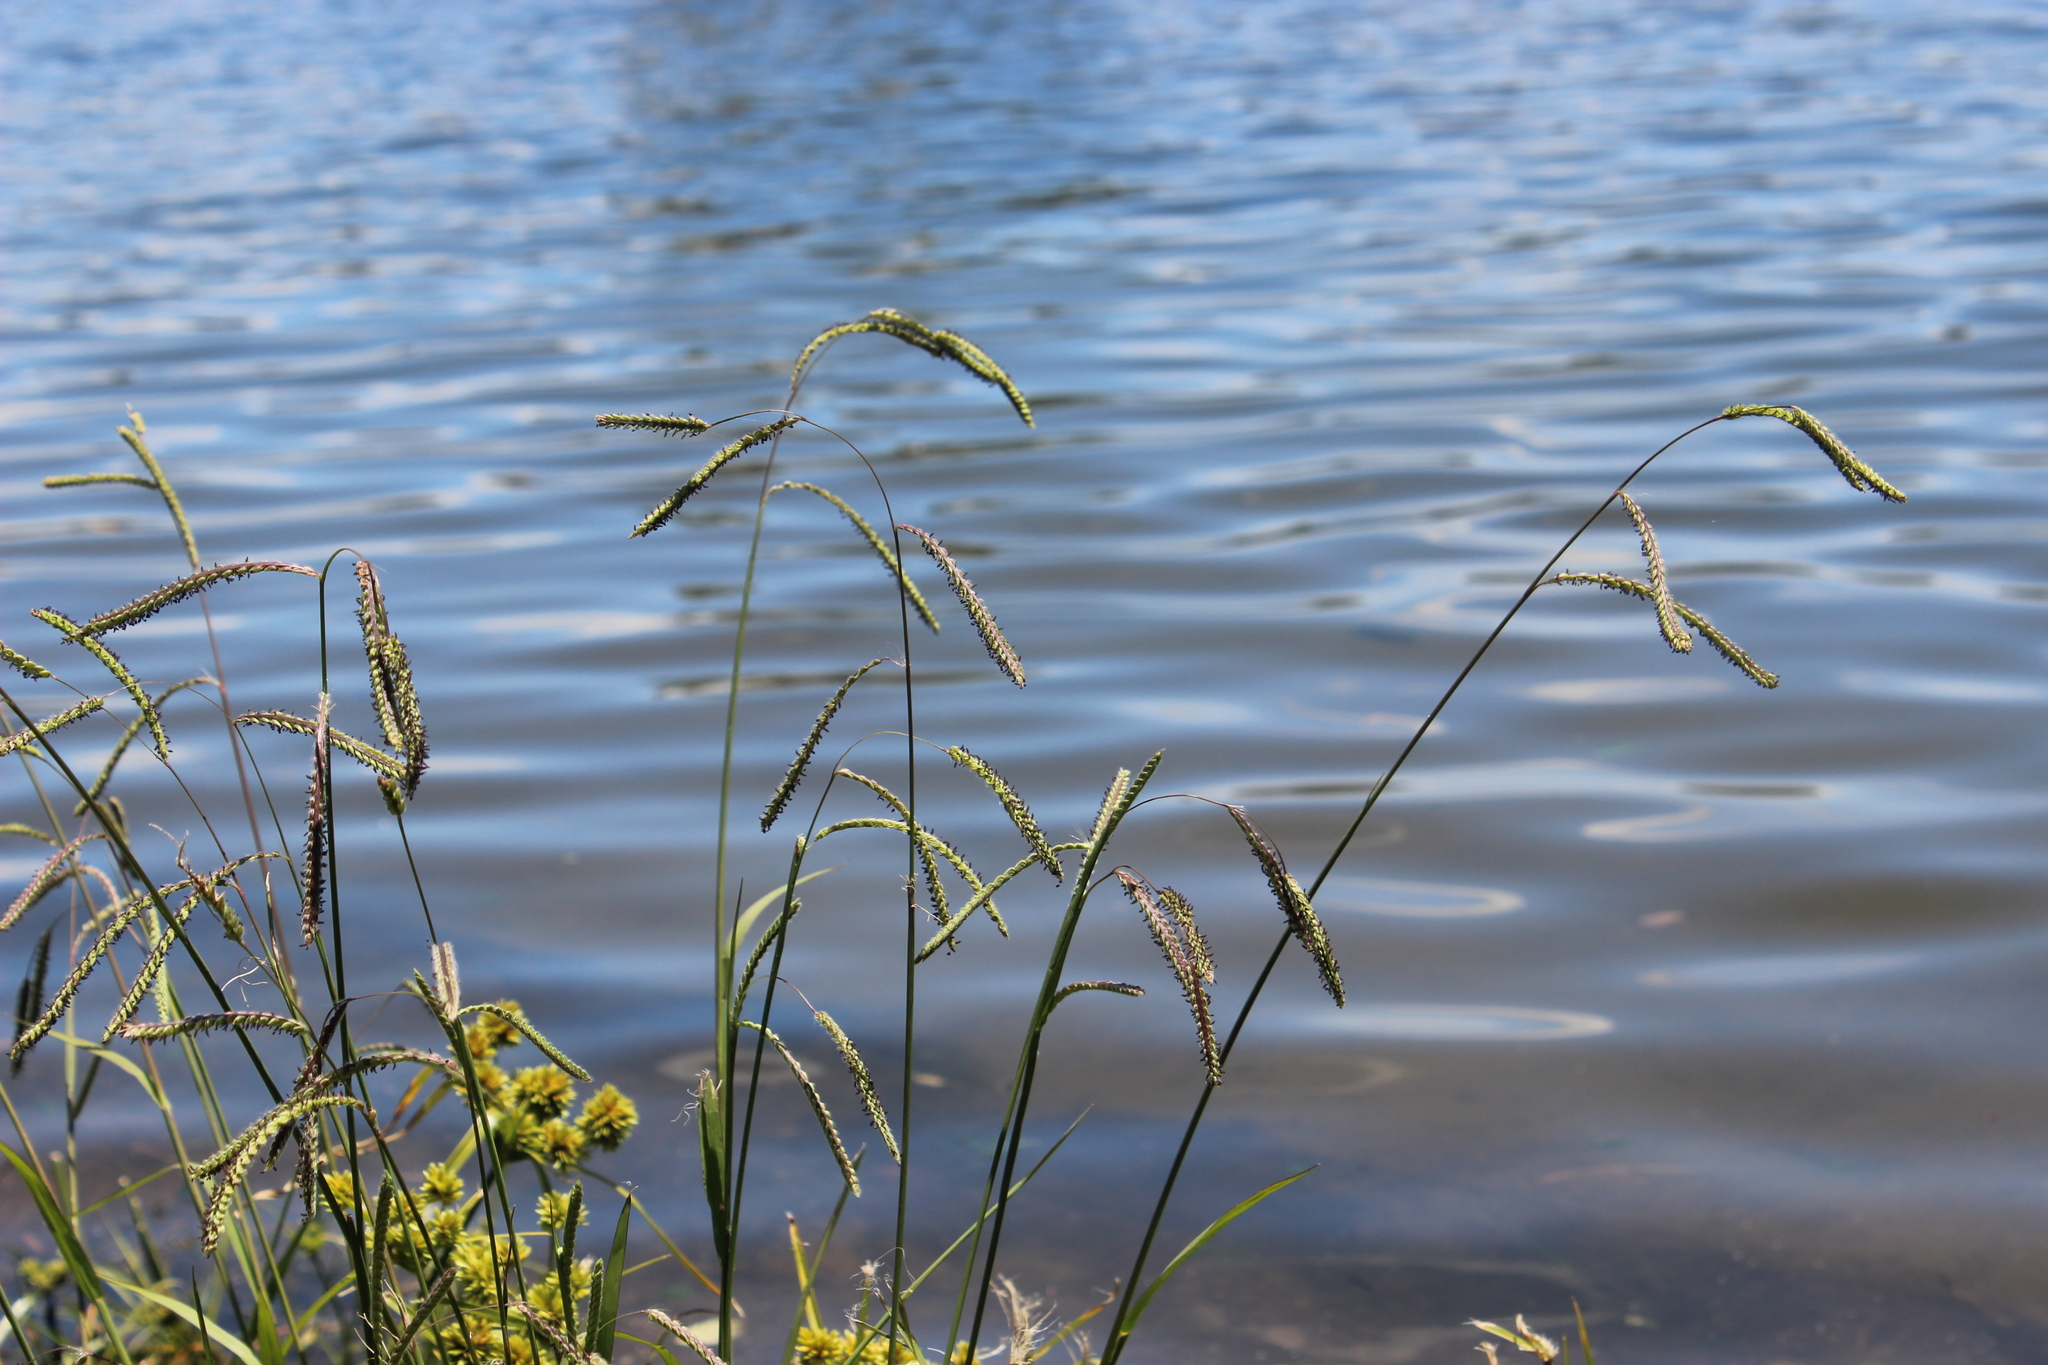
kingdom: Plantae
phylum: Tracheophyta
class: Liliopsida
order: Poales
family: Poaceae
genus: Paspalum
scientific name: Paspalum dilatatum
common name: Dallisgrass
